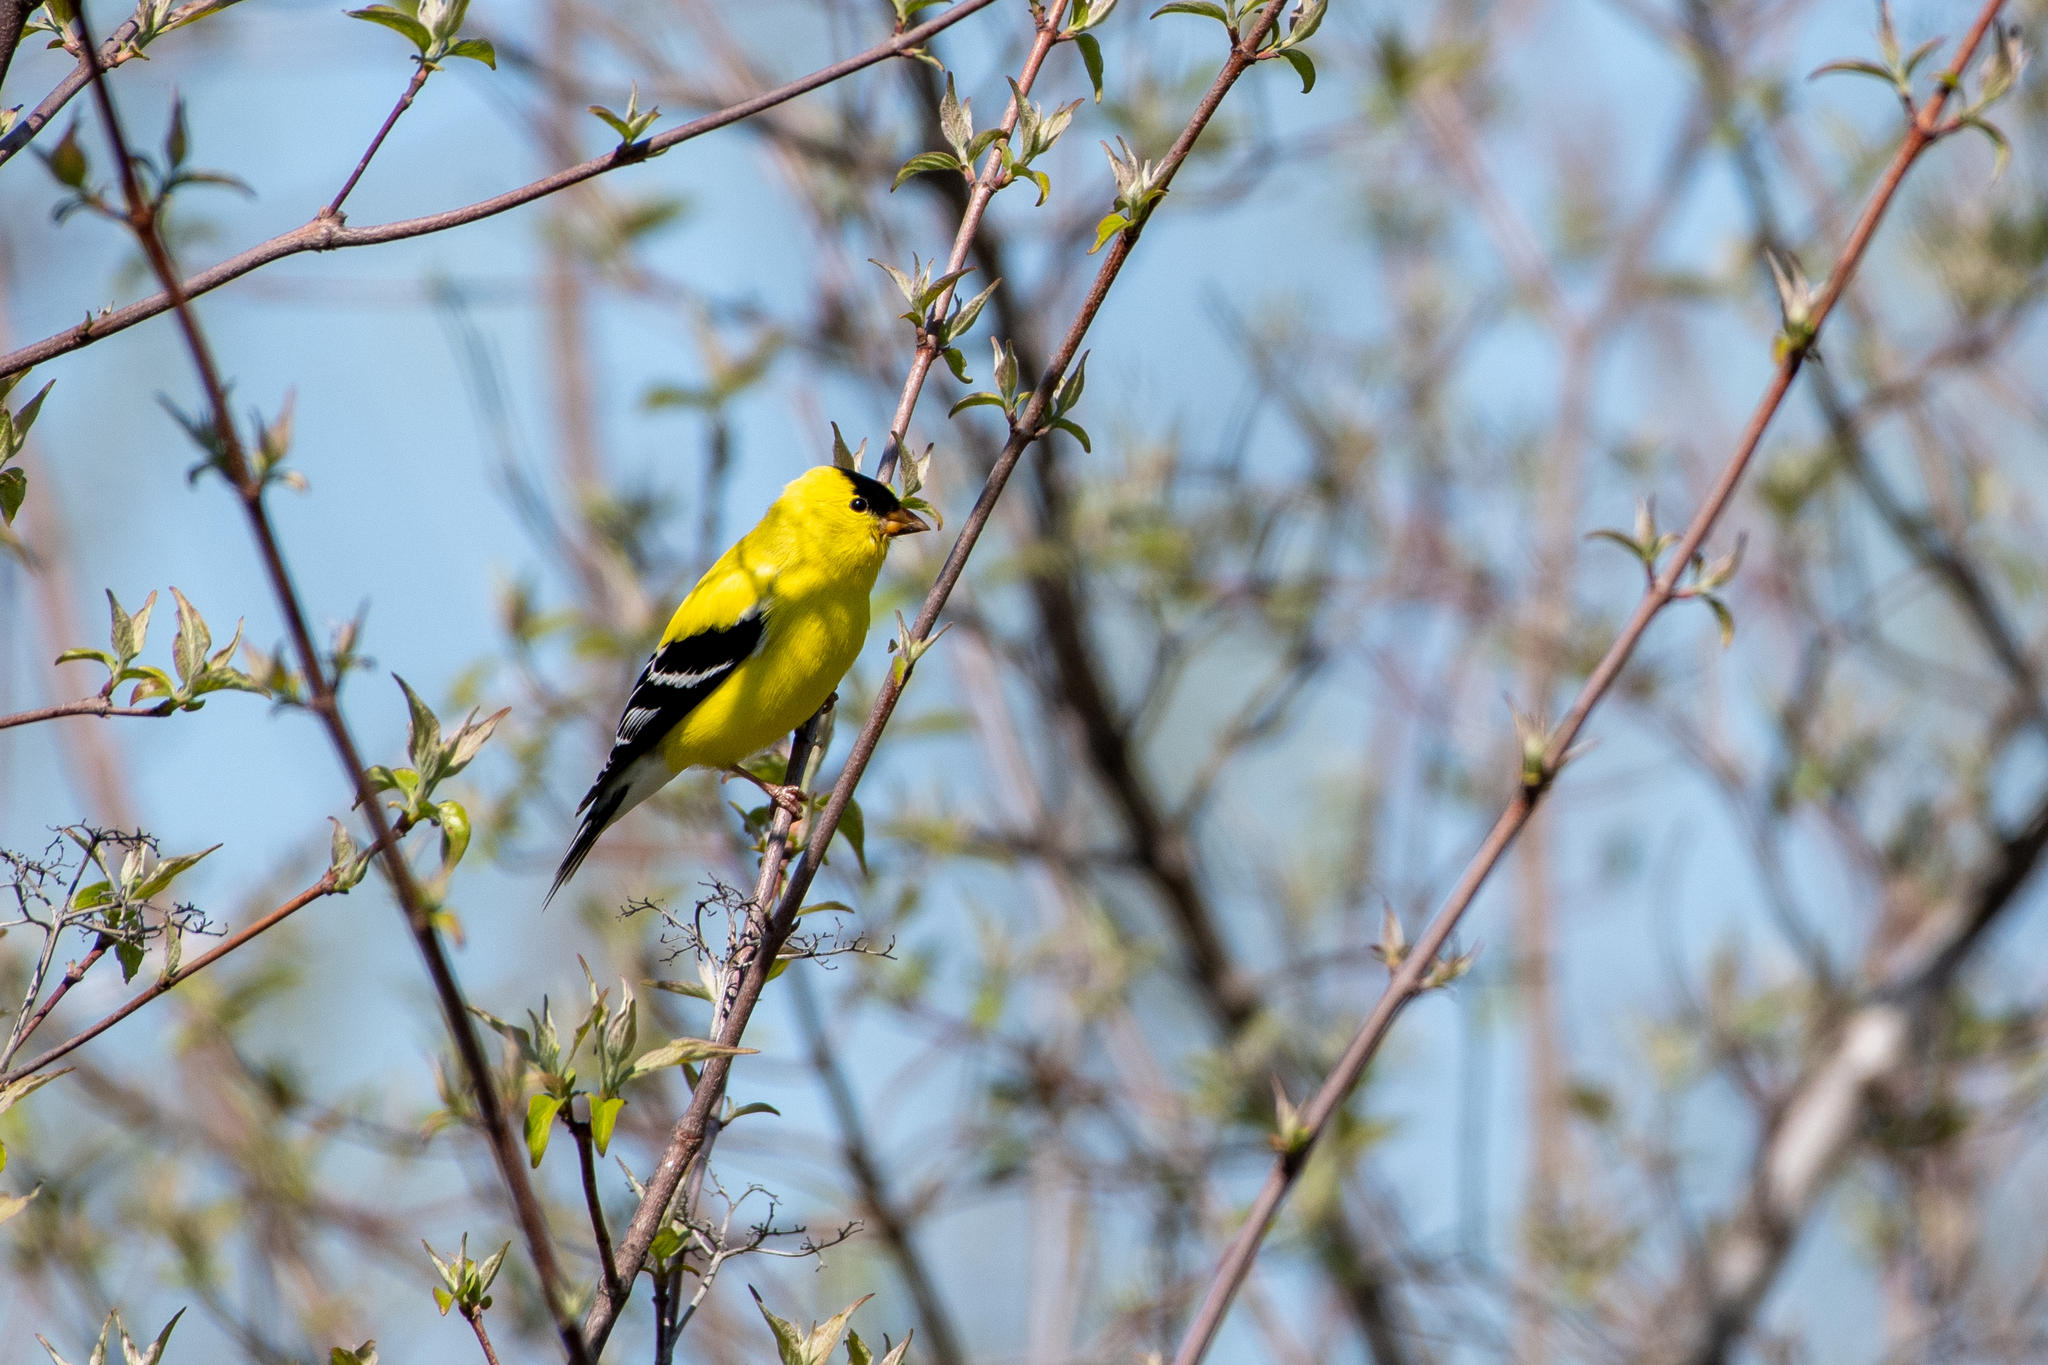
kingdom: Animalia
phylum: Chordata
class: Aves
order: Passeriformes
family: Fringillidae
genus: Spinus
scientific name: Spinus tristis
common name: American goldfinch
